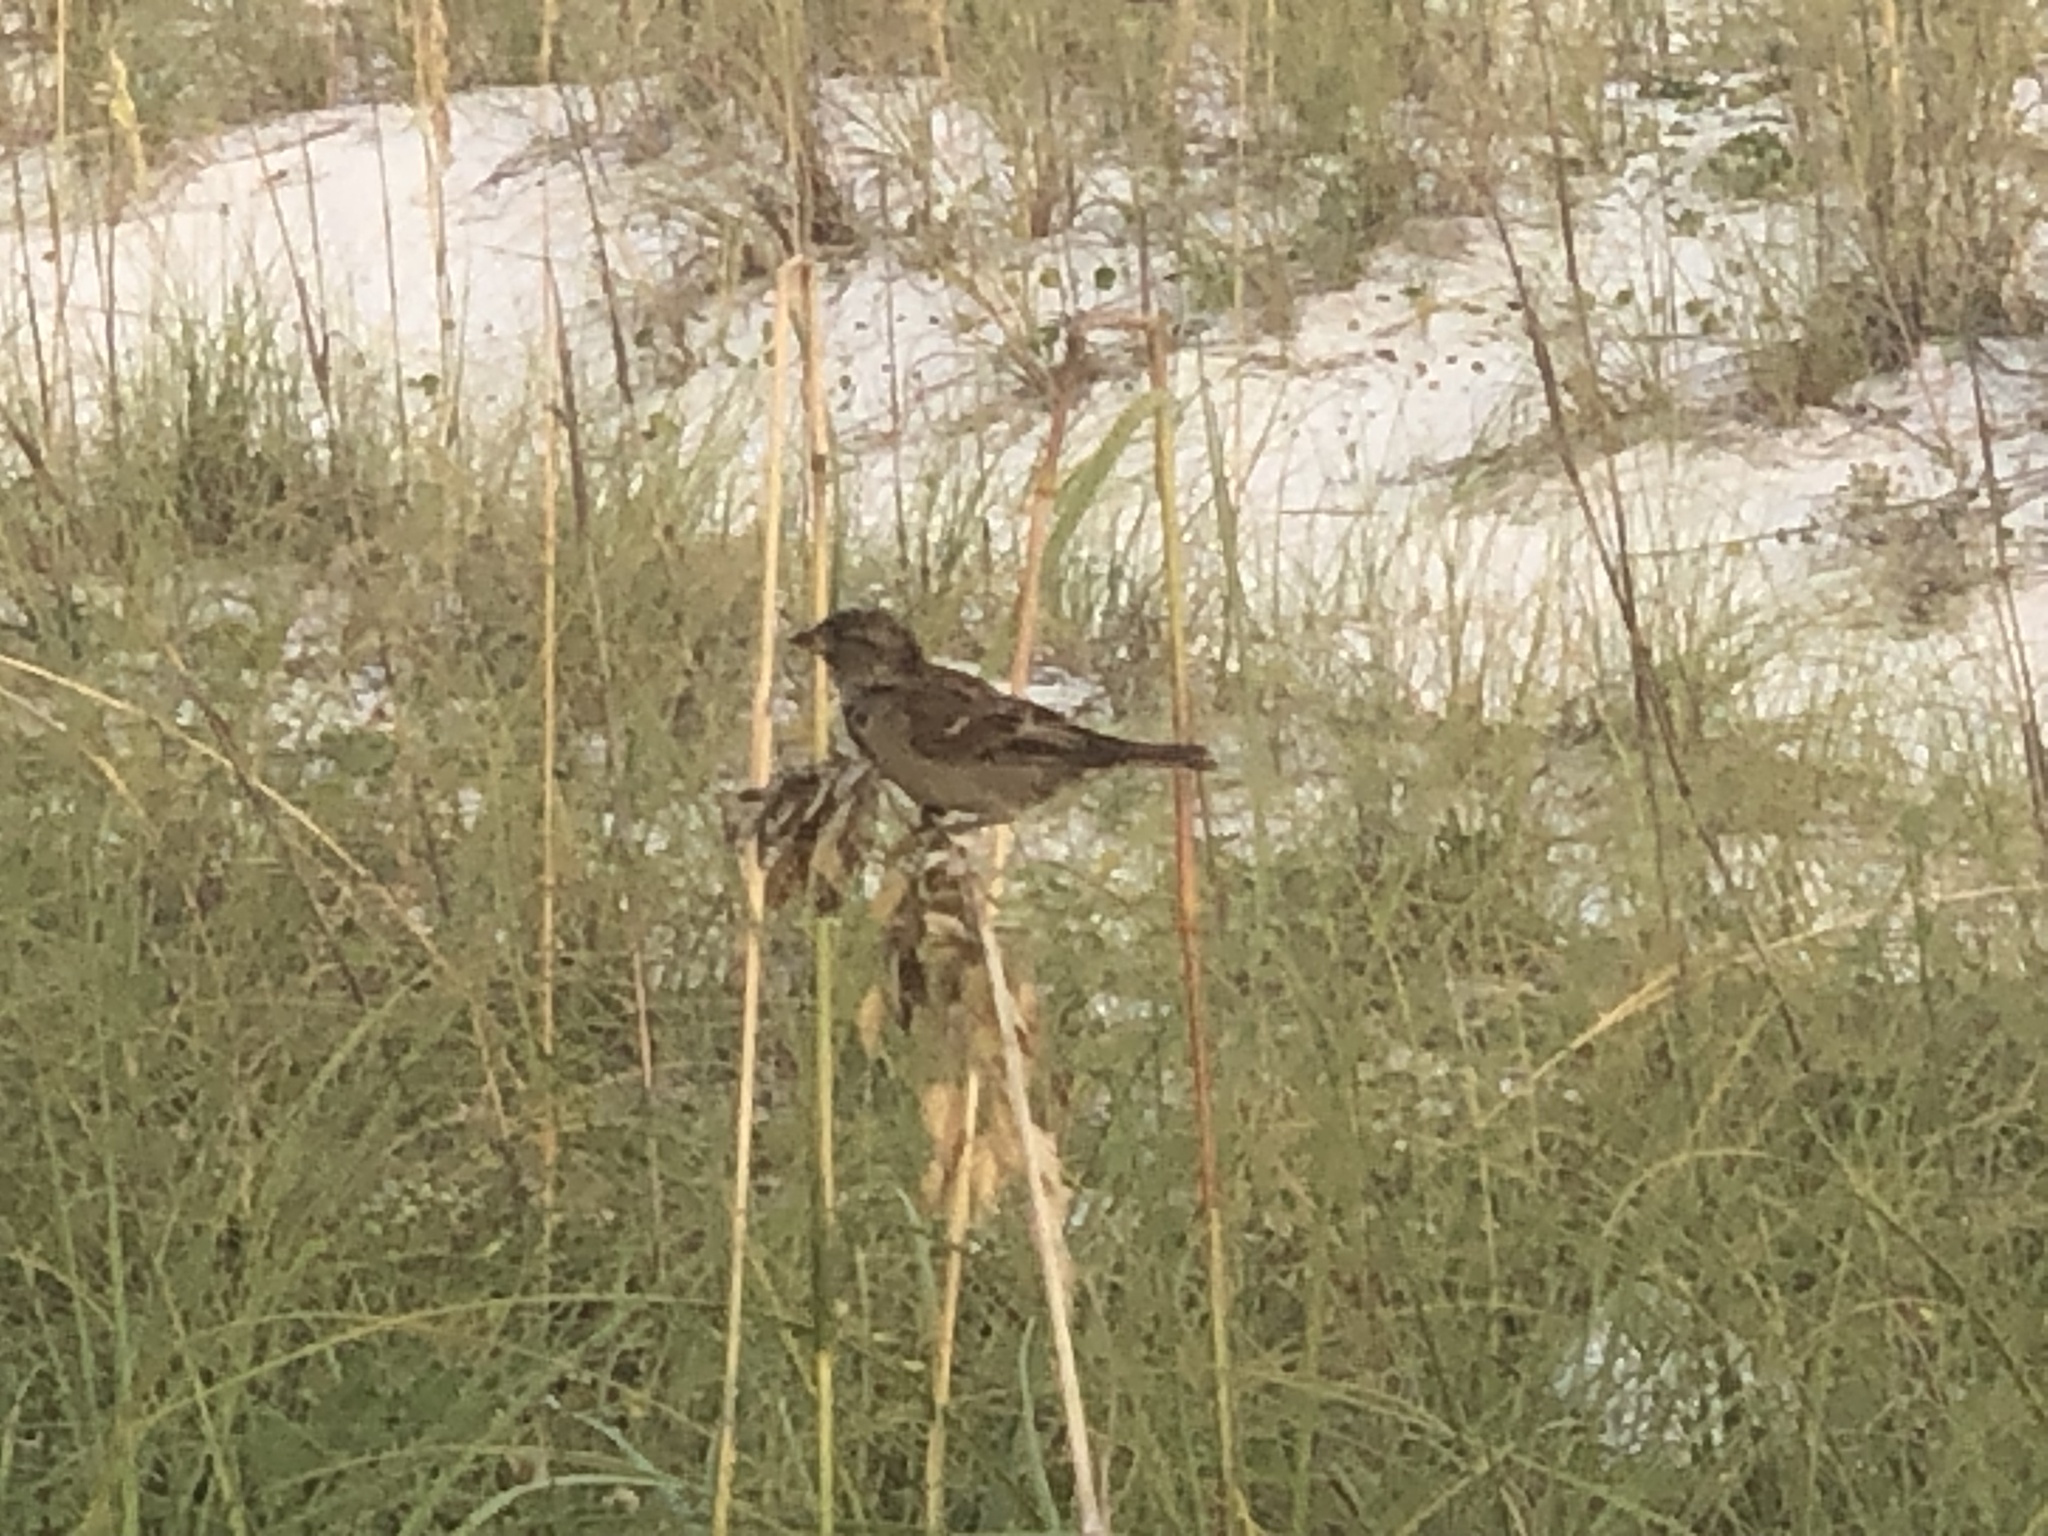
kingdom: Animalia
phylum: Chordata
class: Aves
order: Passeriformes
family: Passeridae
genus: Passer
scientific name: Passer domesticus
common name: House sparrow
